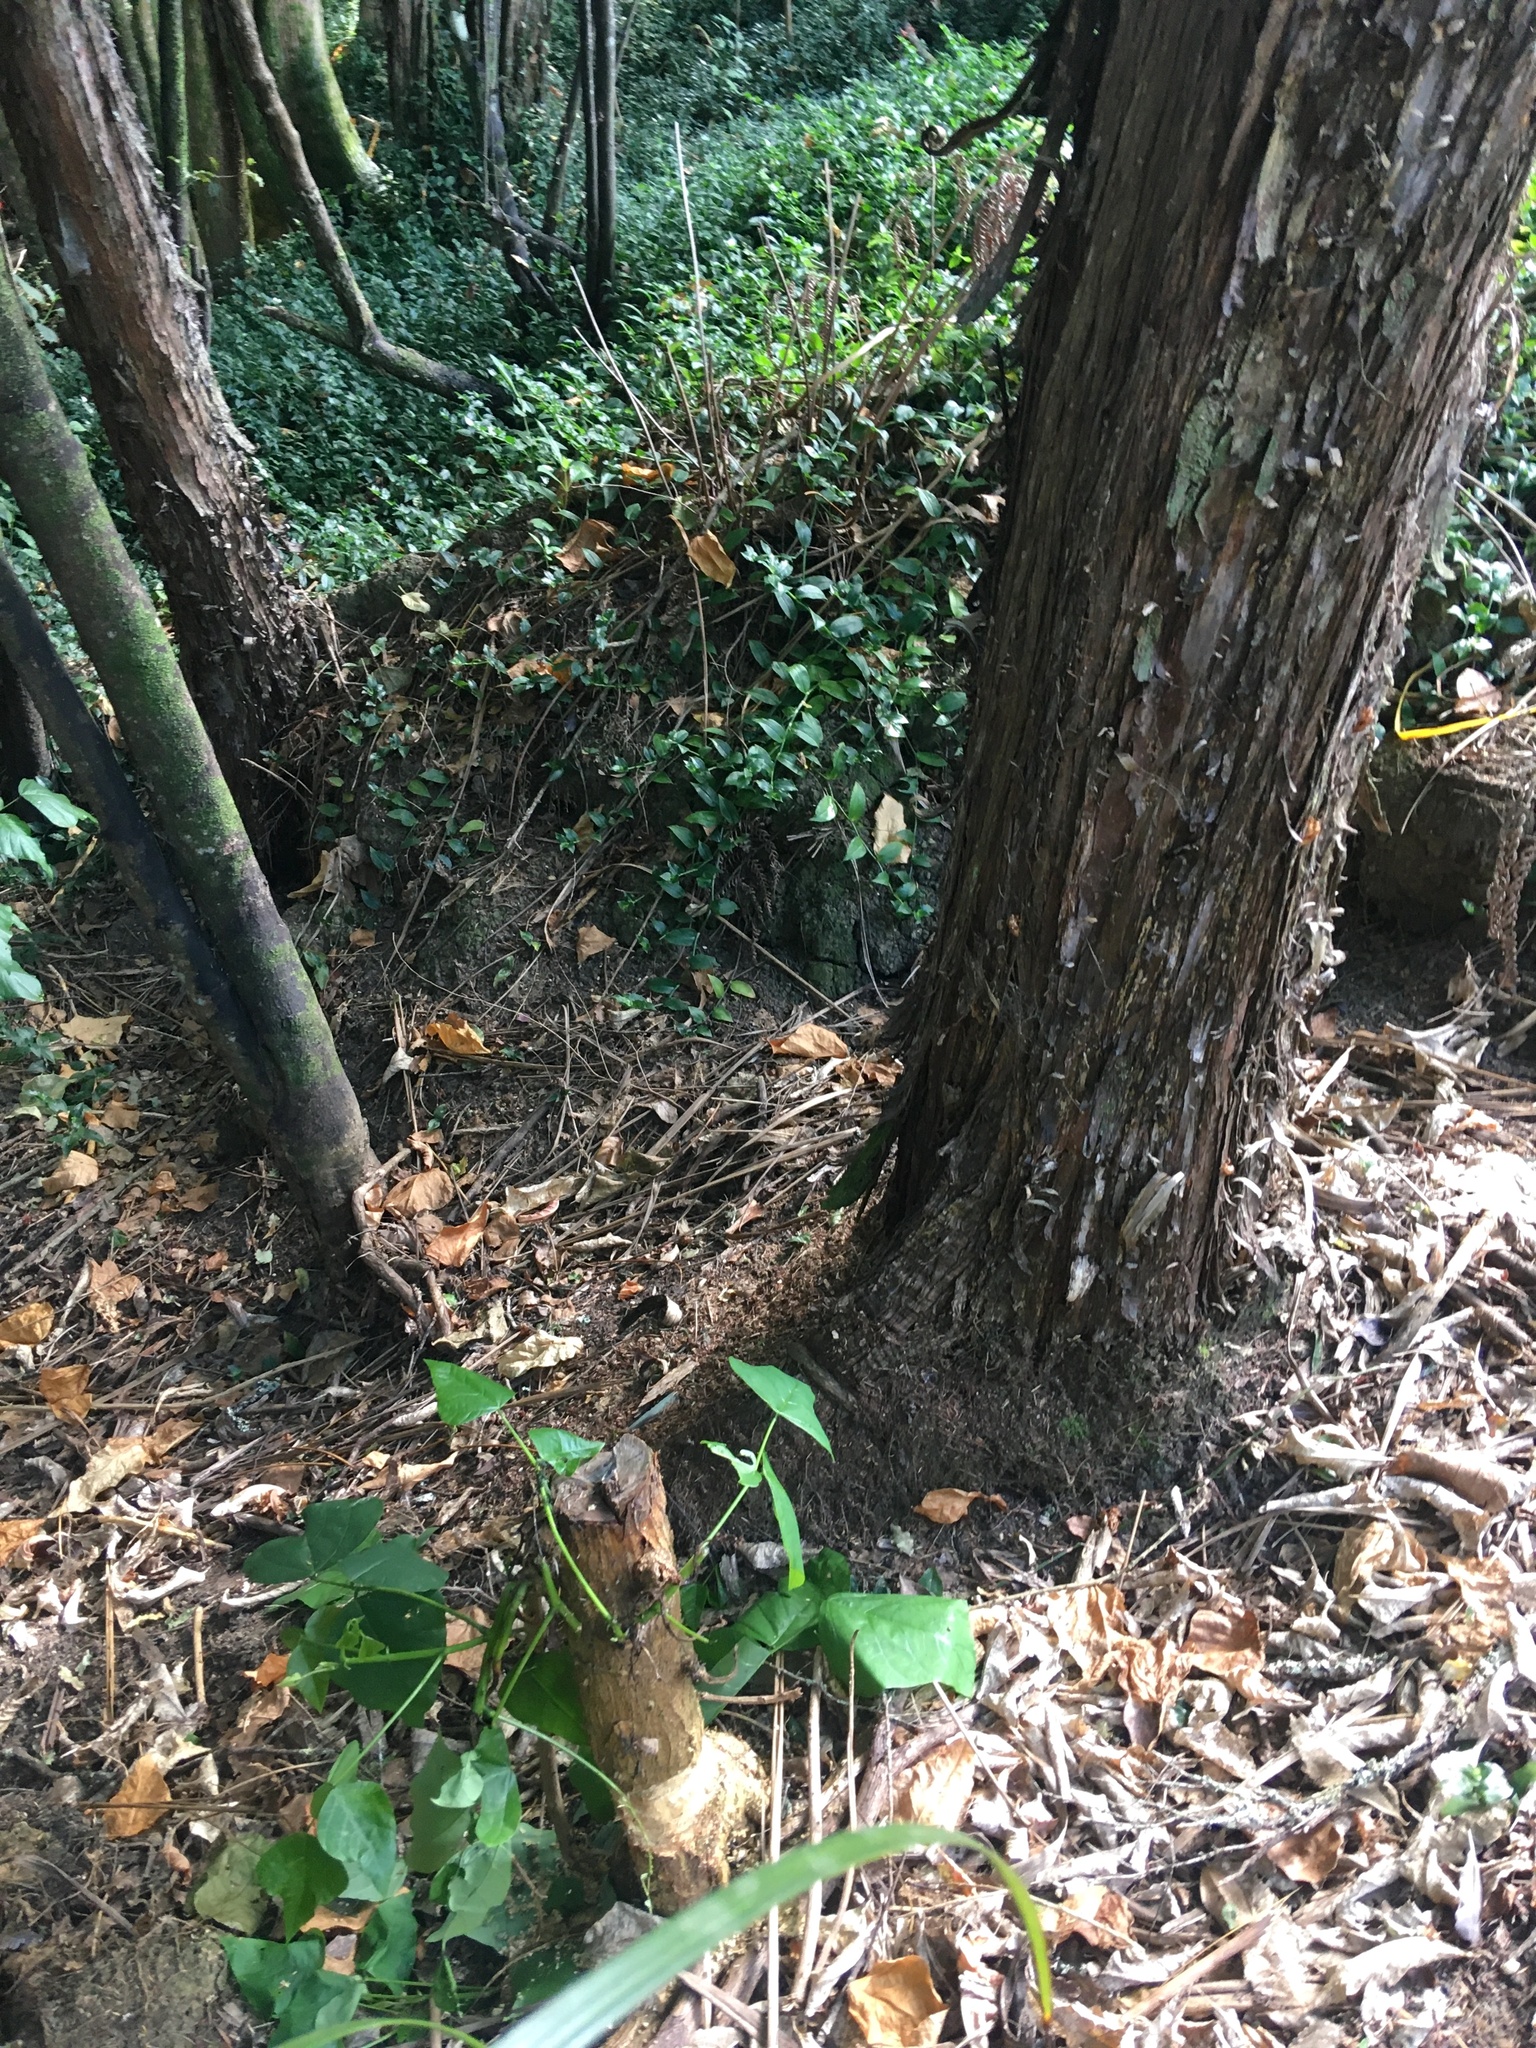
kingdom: Plantae
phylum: Tracheophyta
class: Liliopsida
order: Commelinales
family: Commelinaceae
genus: Tradescantia
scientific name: Tradescantia fluminensis
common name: Wandering-jew
